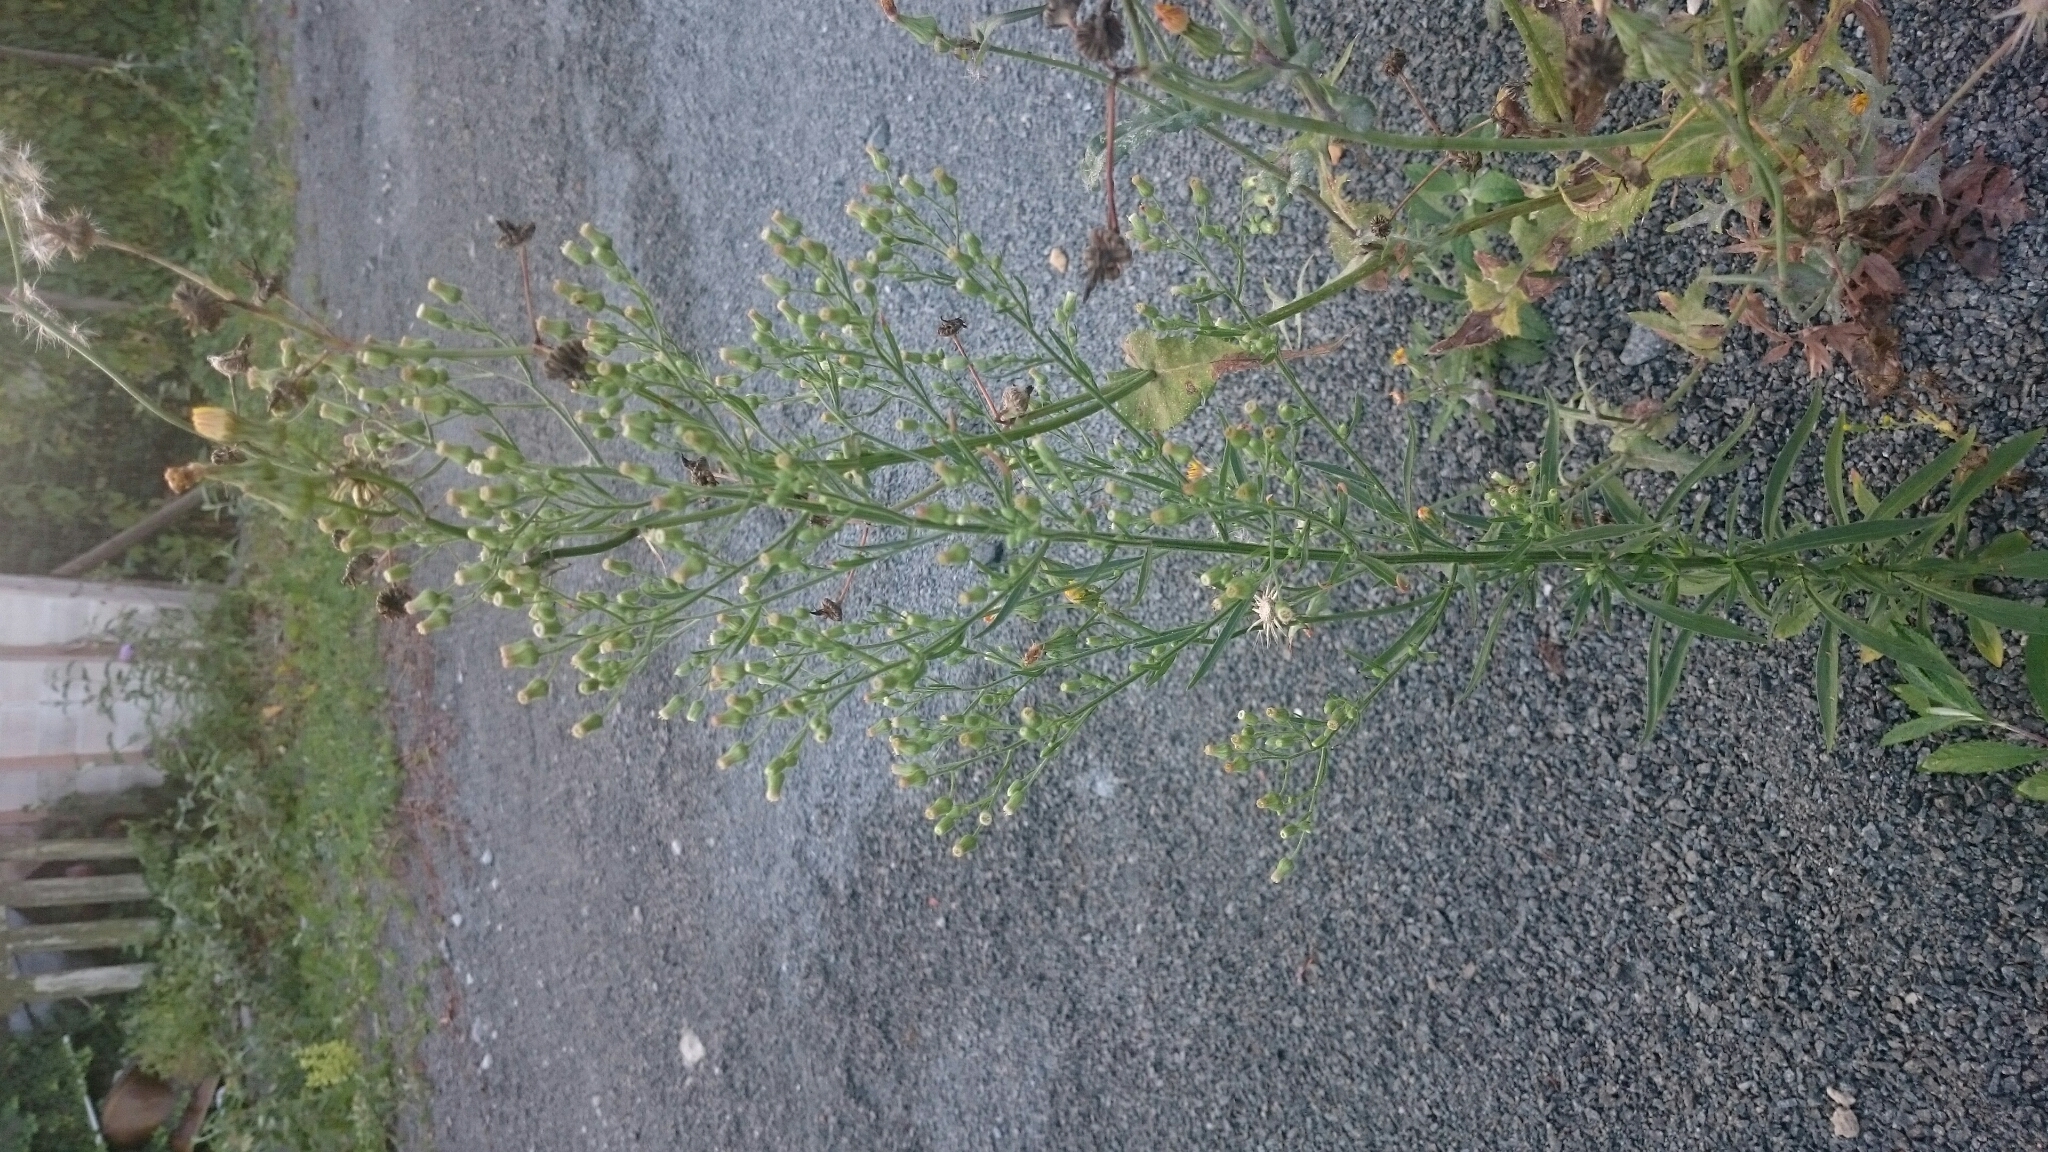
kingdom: Plantae
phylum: Tracheophyta
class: Magnoliopsida
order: Asterales
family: Asteraceae
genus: Erigeron
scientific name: Erigeron canadensis
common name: Canadian fleabane
